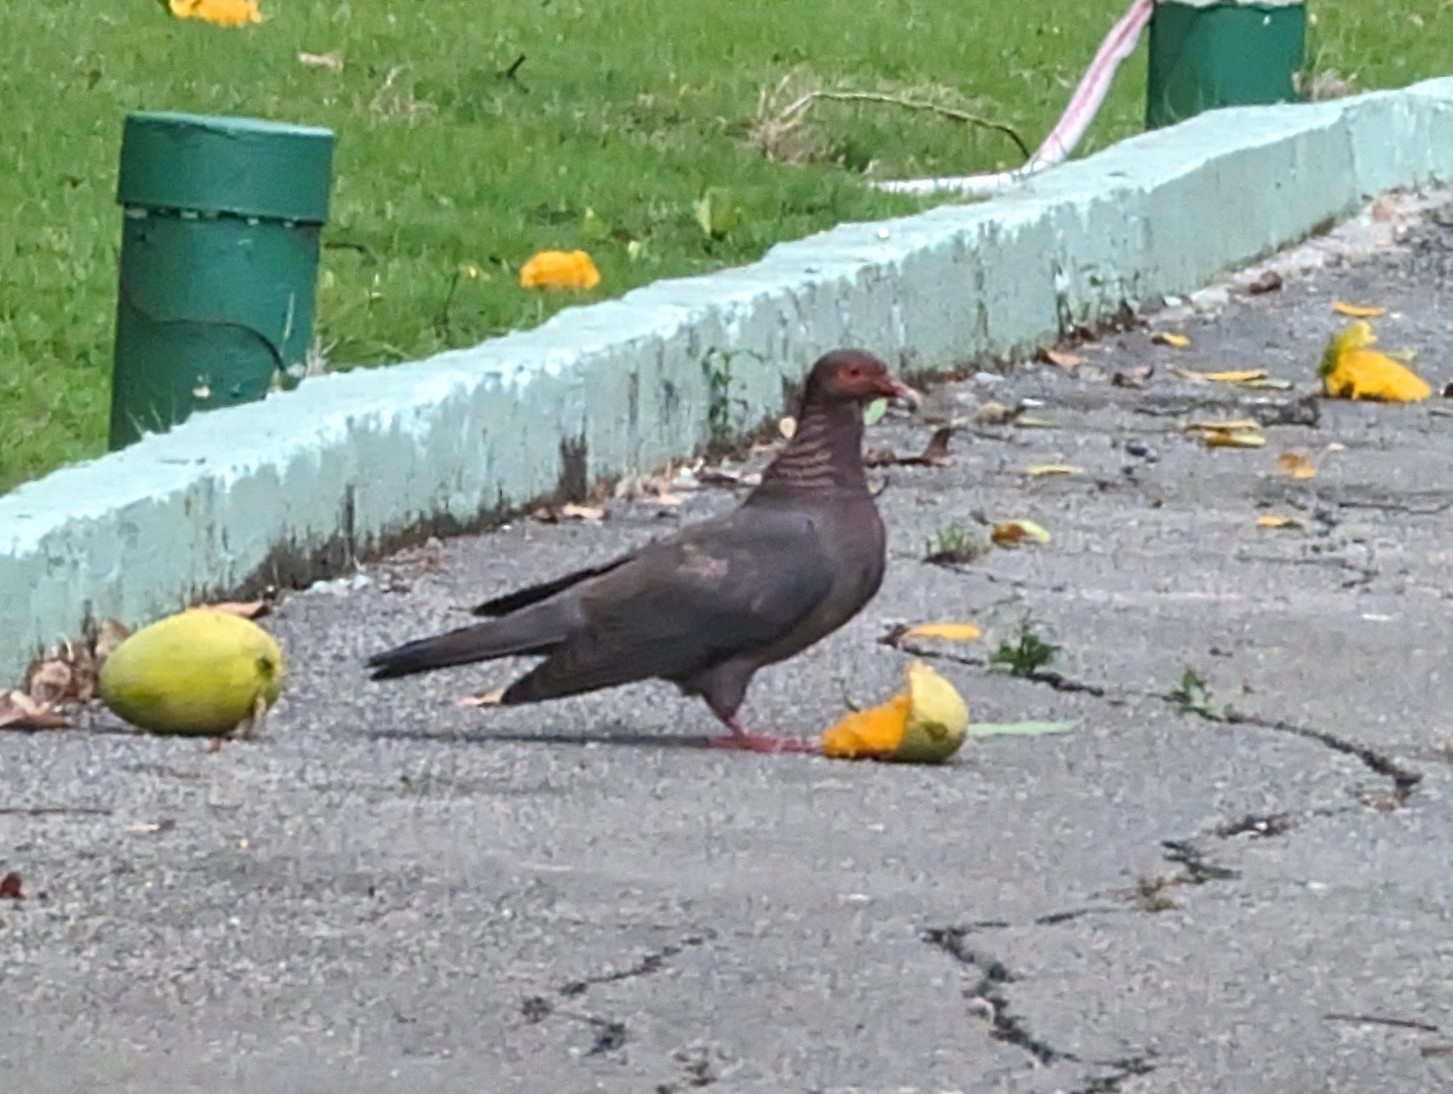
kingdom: Animalia
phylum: Chordata
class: Aves
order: Columbiformes
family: Columbidae
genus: Patagioenas
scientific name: Patagioenas squamosa
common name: Scaly-naped pigeon
